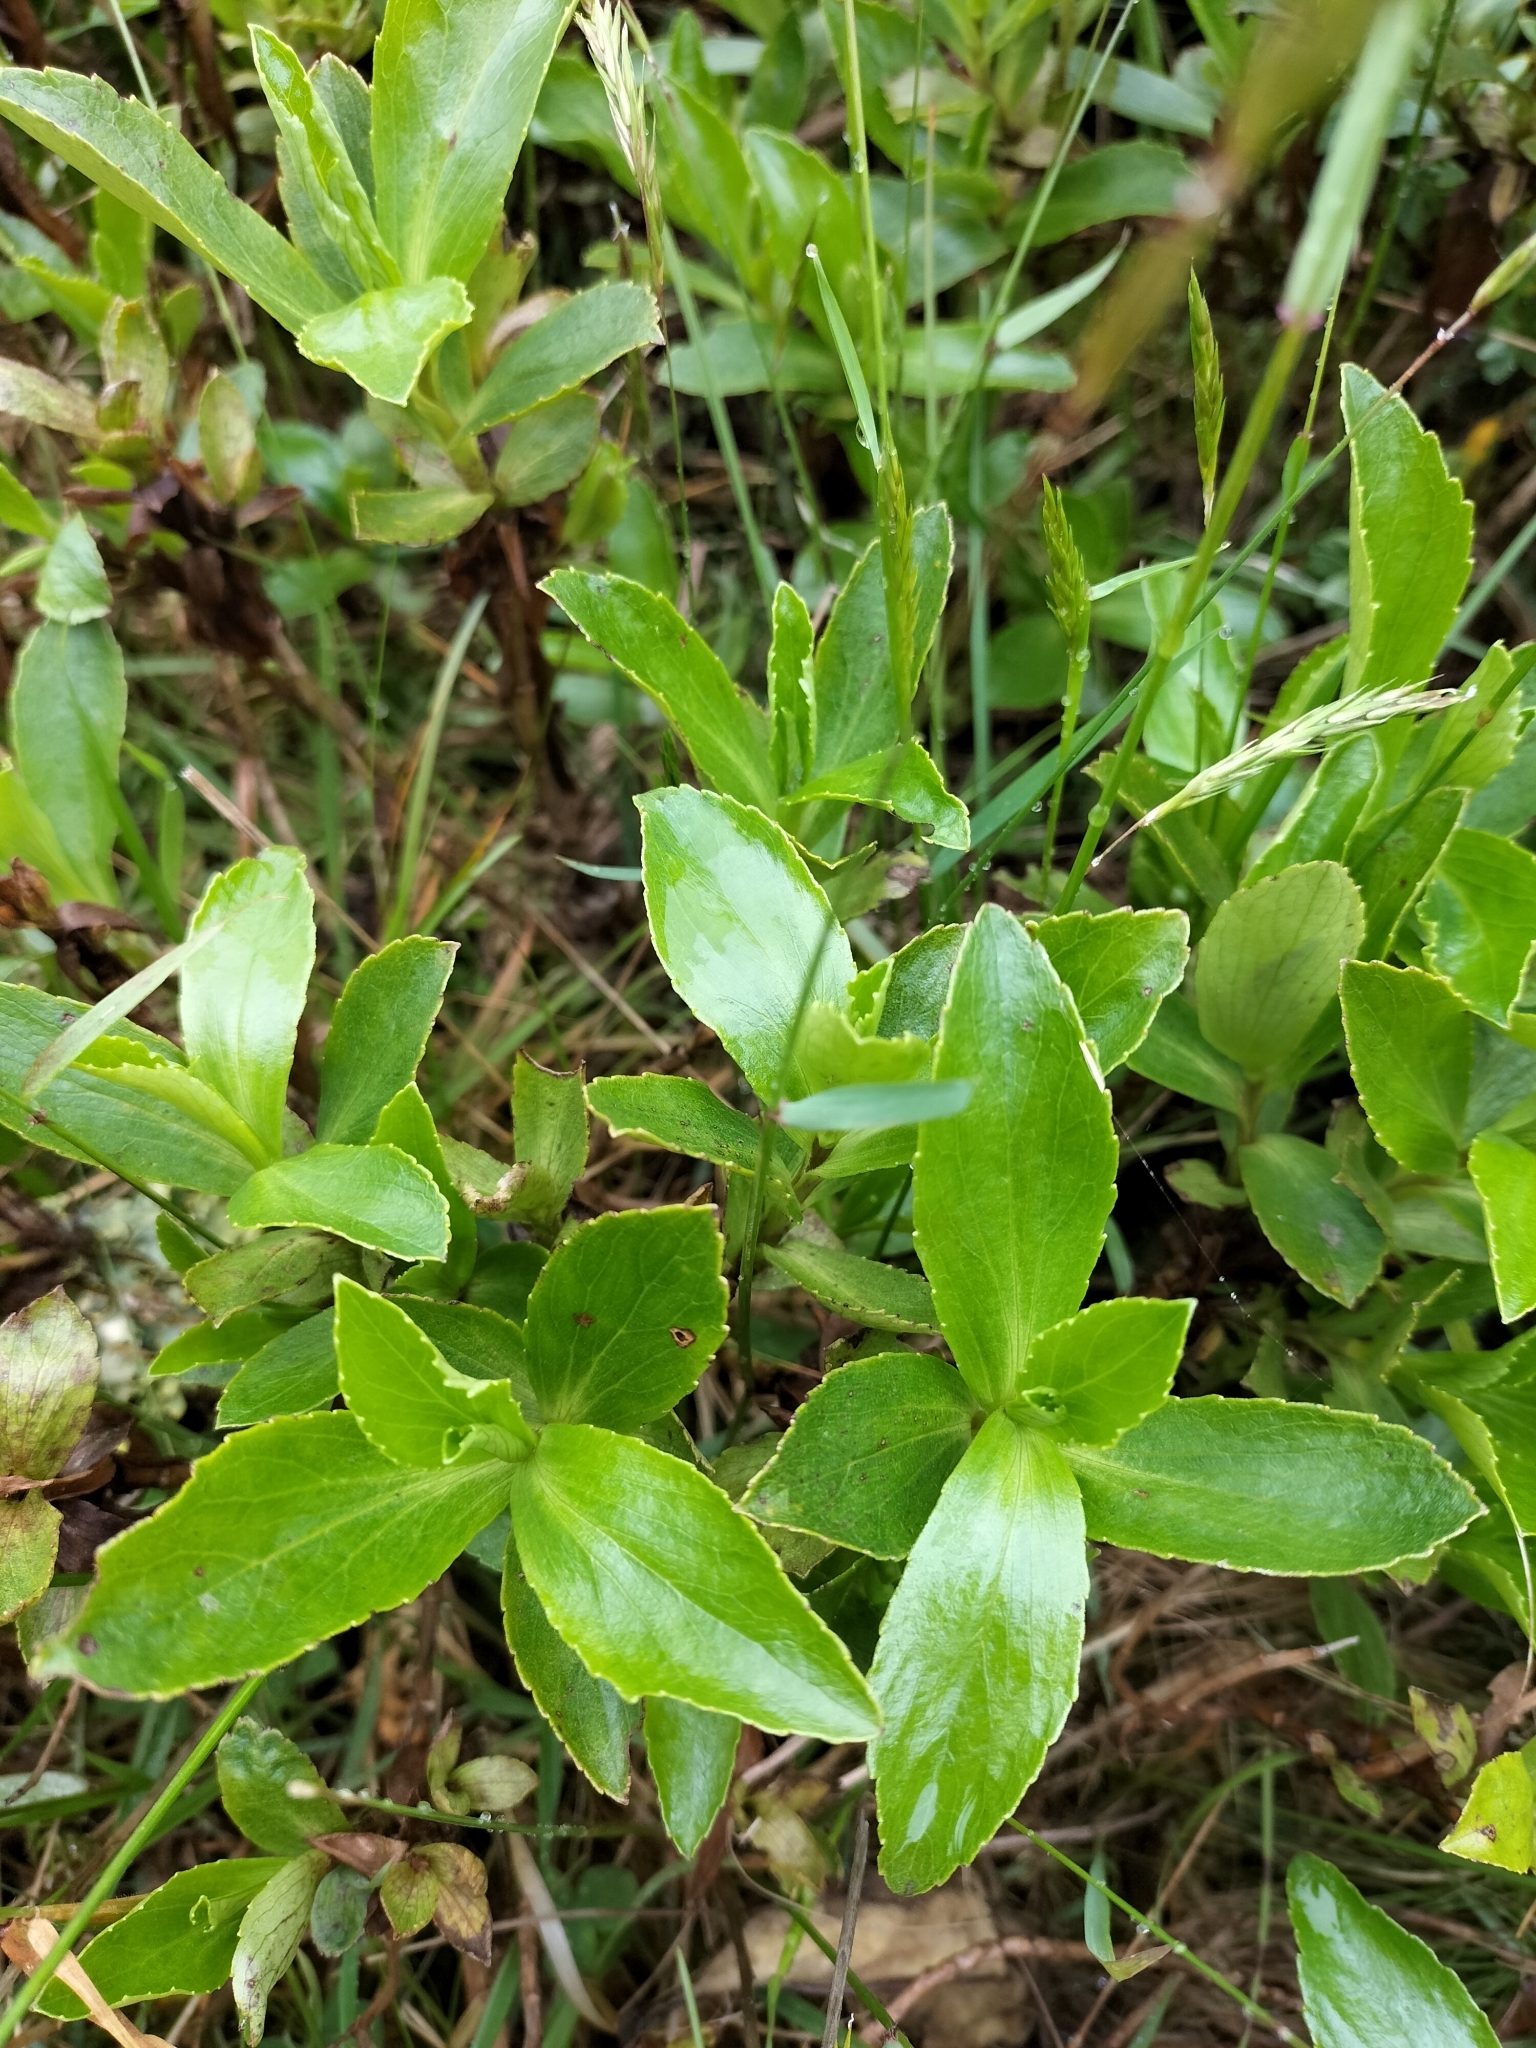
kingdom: Plantae
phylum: Tracheophyta
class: Magnoliopsida
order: Asterales
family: Asteraceae
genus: Traversia
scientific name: Traversia baccharoides
